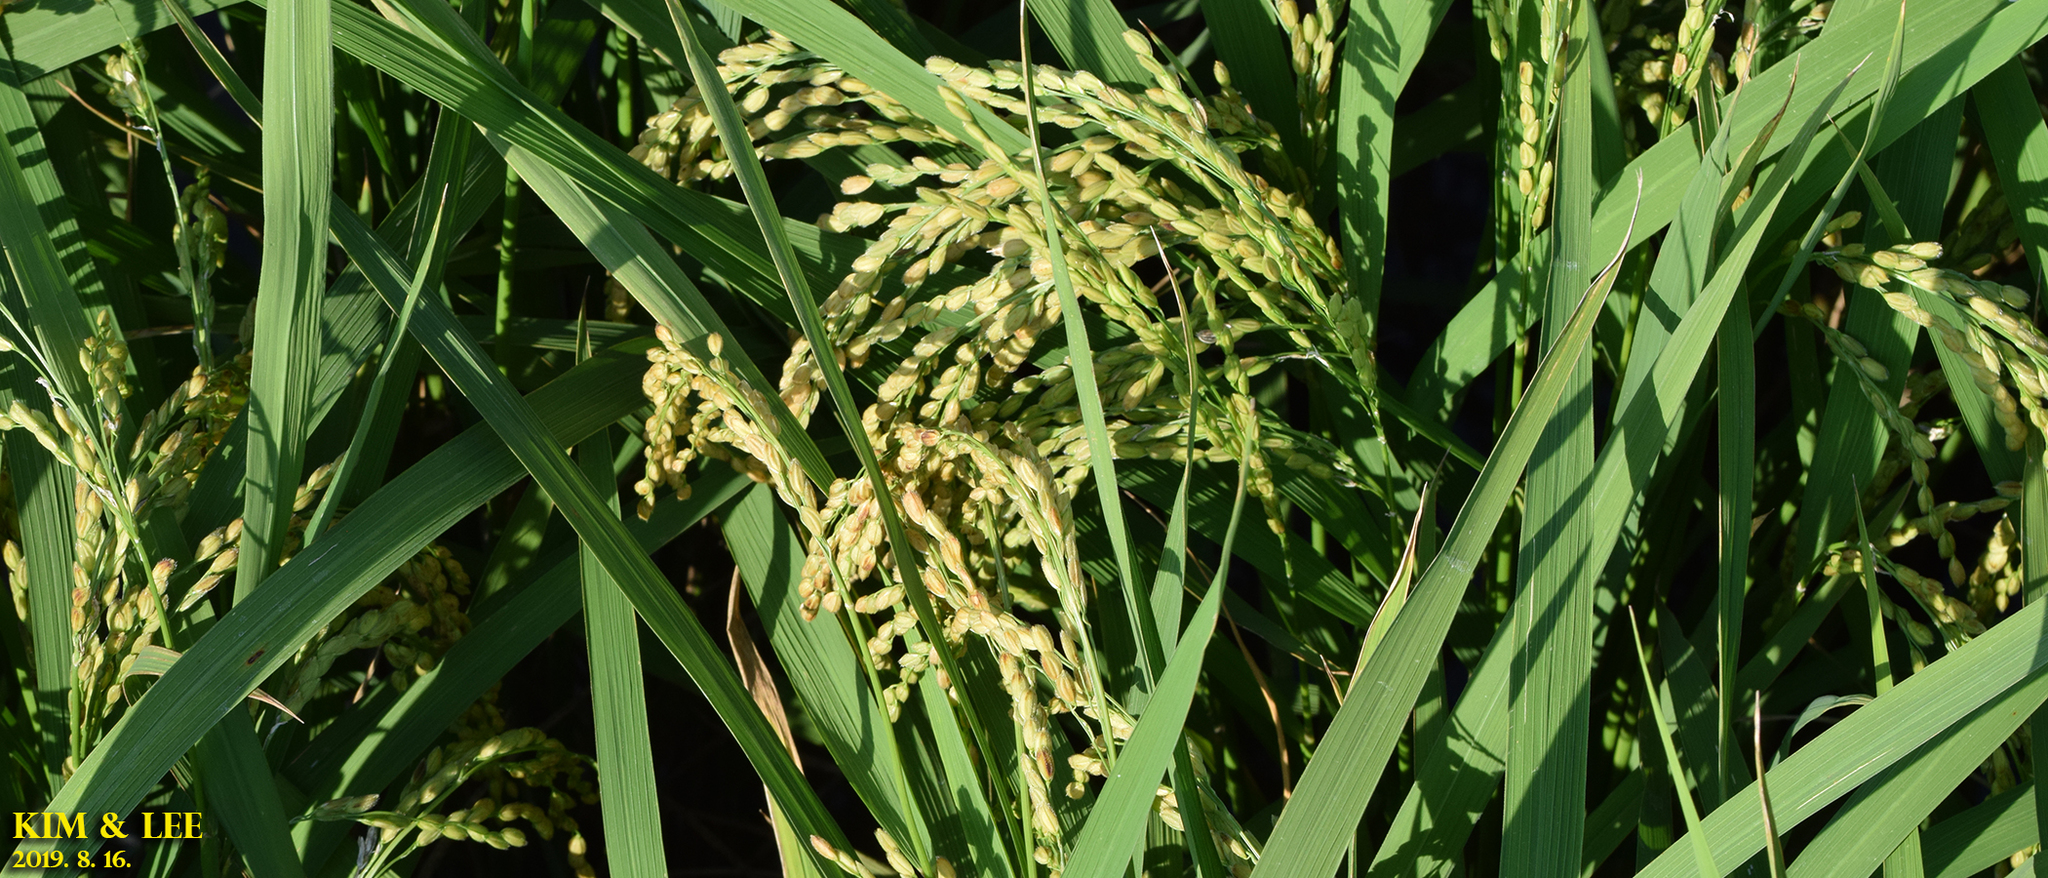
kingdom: Plantae
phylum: Tracheophyta
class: Liliopsida
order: Poales
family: Poaceae
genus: Oryza
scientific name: Oryza sativa
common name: Rice
